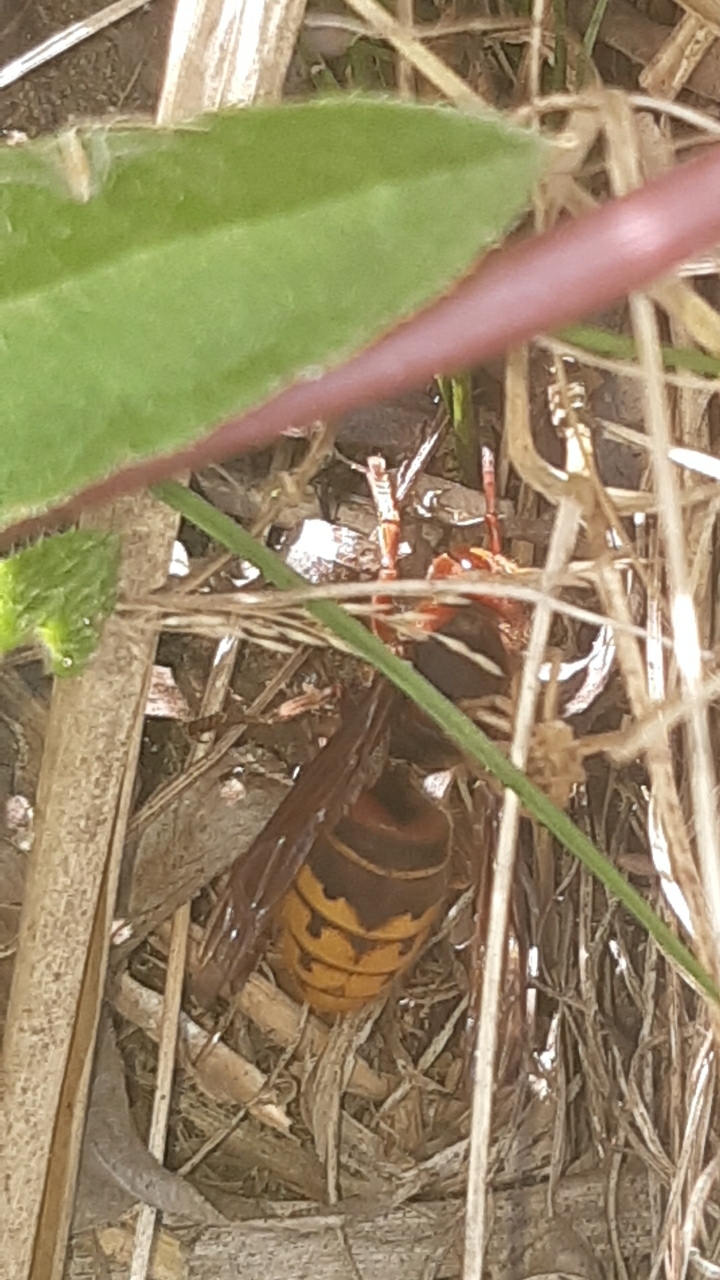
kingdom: Animalia
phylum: Arthropoda
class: Insecta
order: Hymenoptera
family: Vespidae
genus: Vespa
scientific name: Vespa crabro
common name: Hornet
